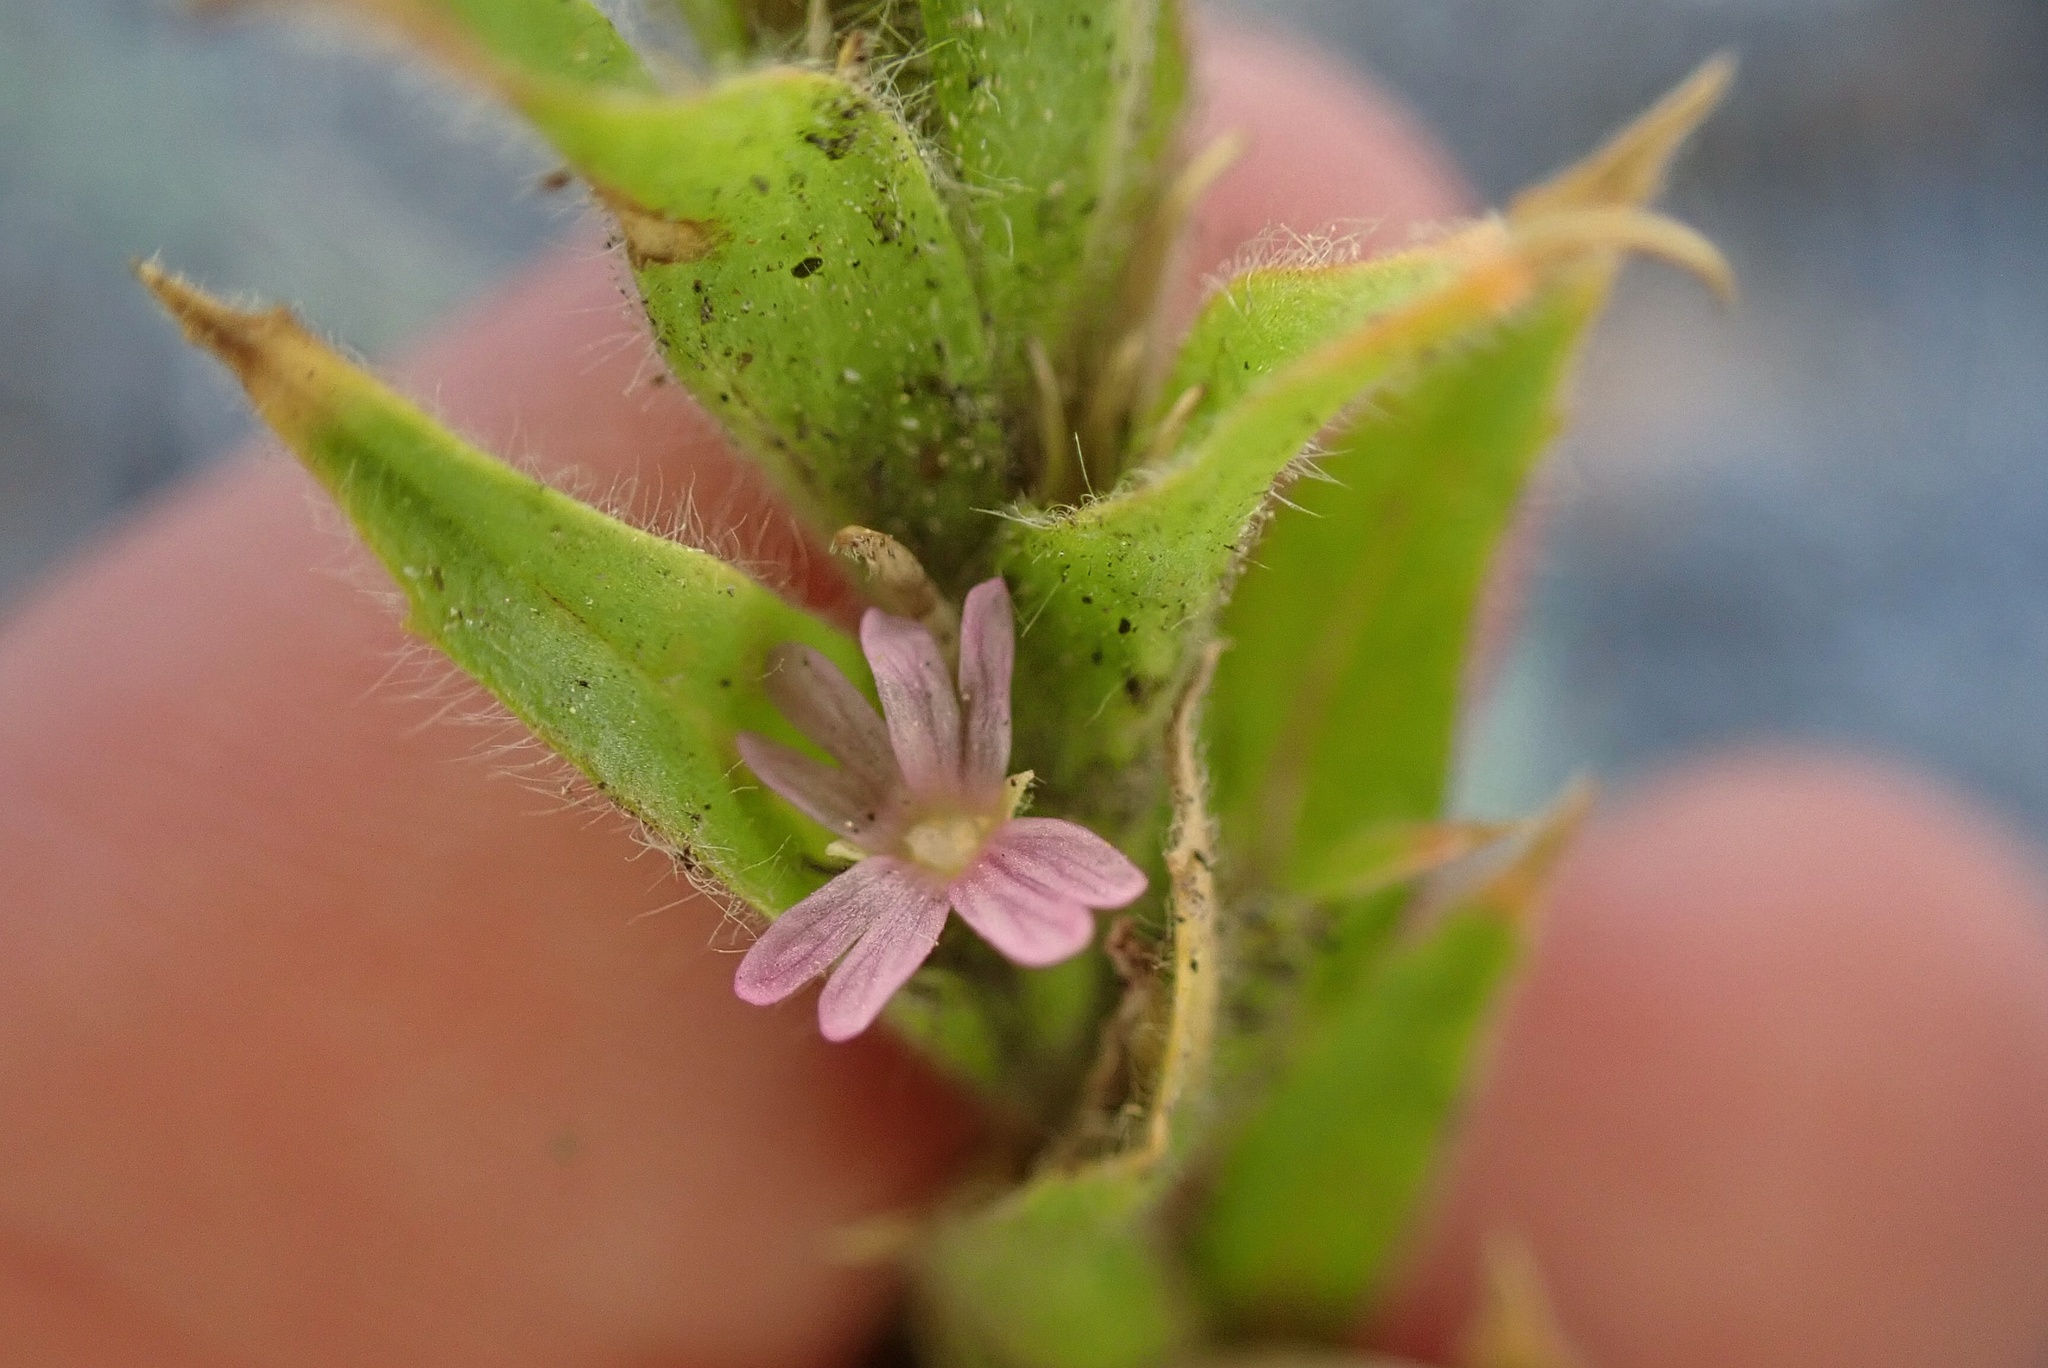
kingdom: Plantae
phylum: Tracheophyta
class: Magnoliopsida
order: Myrtales
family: Onagraceae
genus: Epilobium
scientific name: Epilobium densiflorum
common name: Dense spike-primrose
